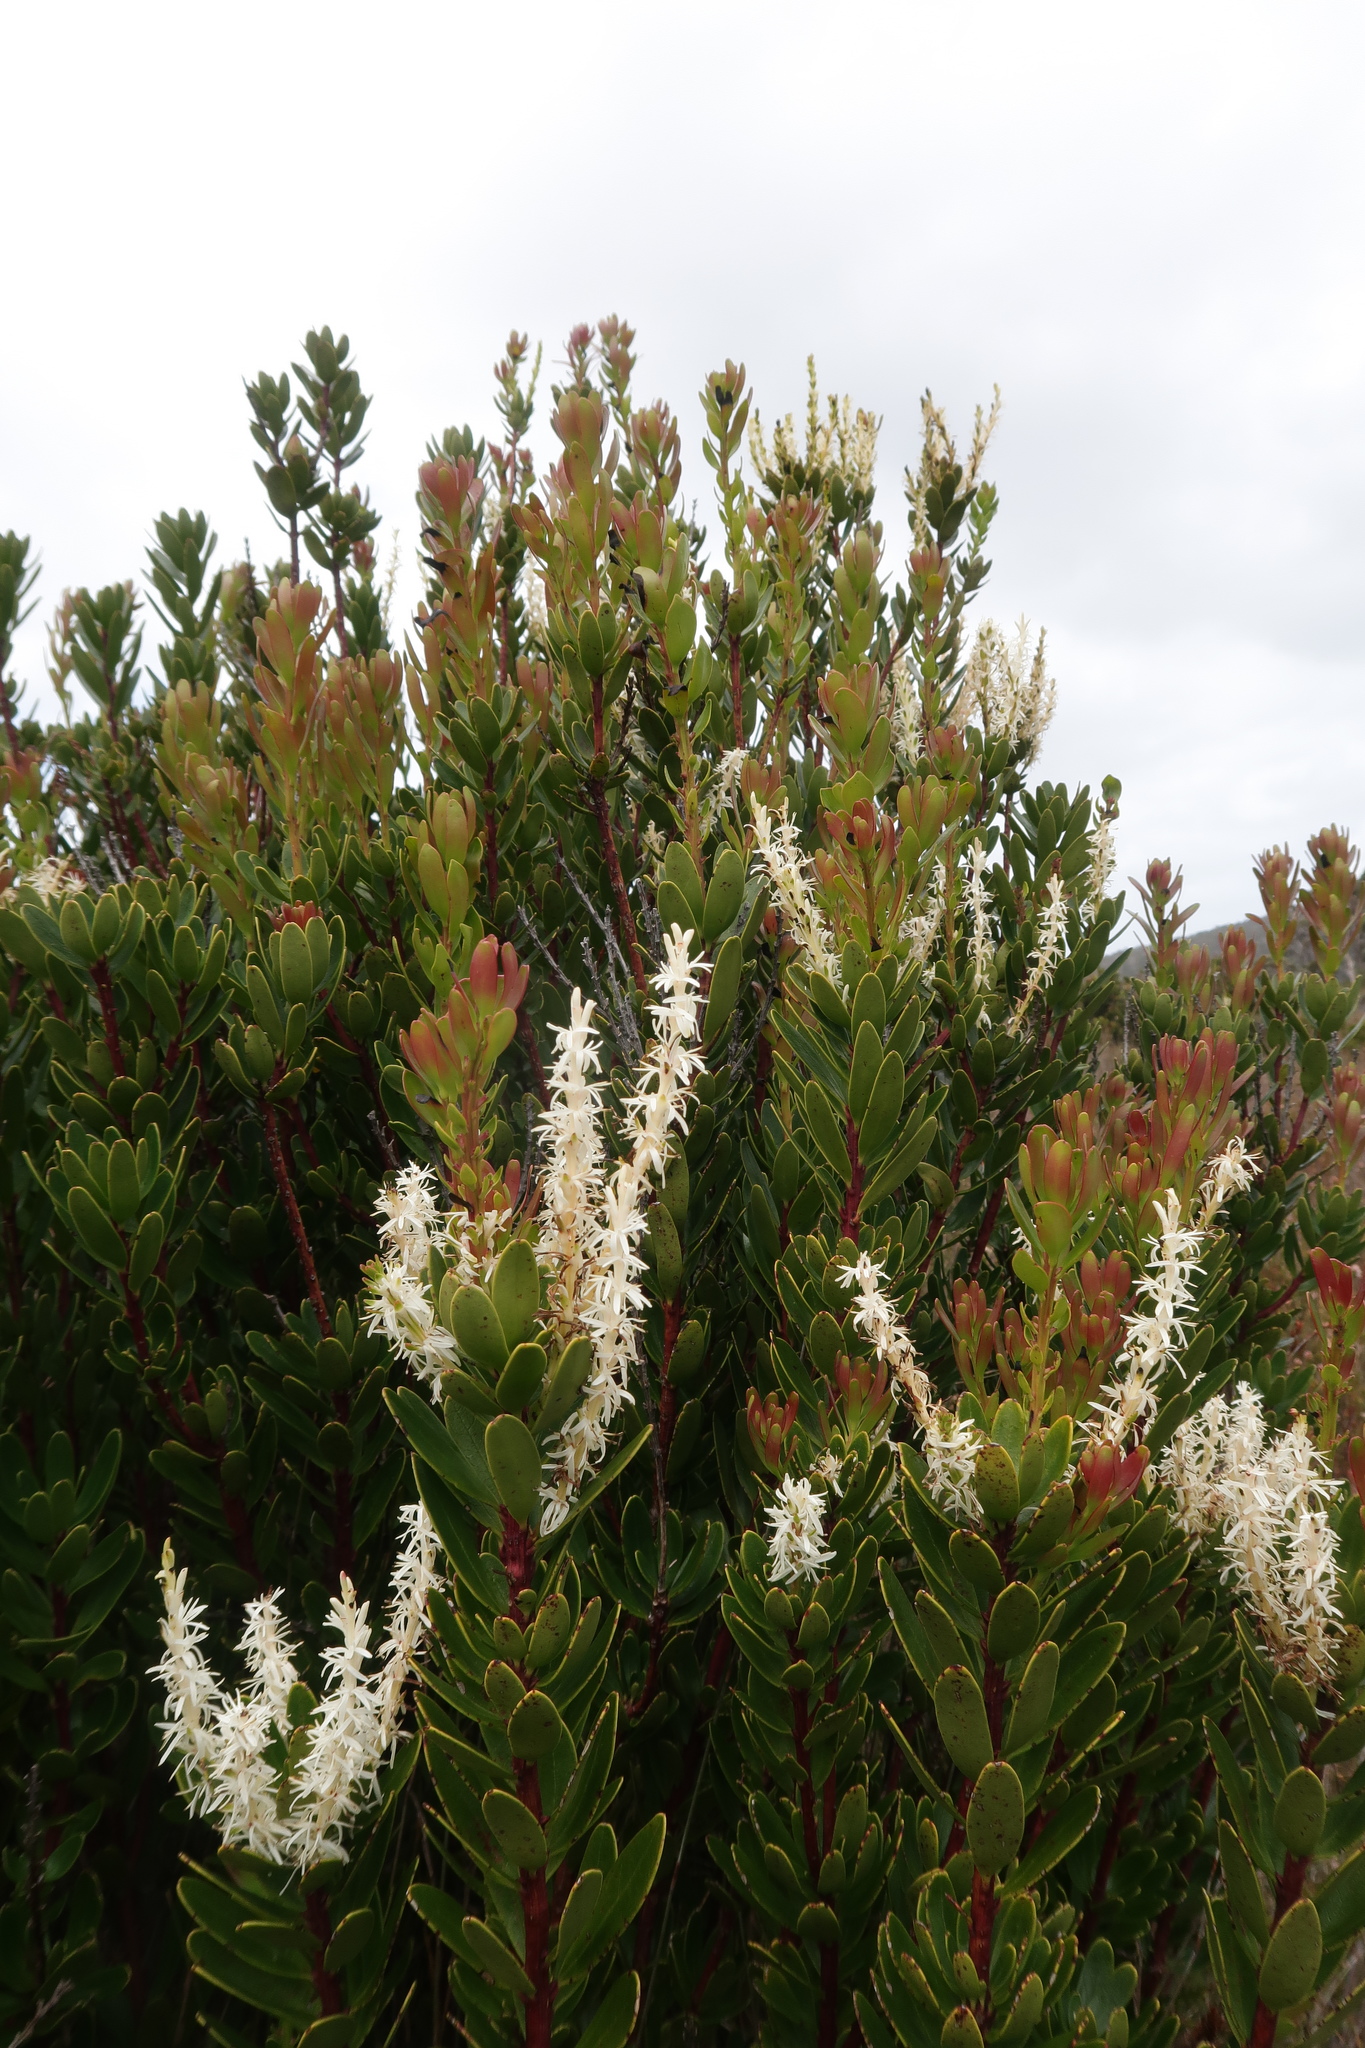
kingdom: Plantae
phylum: Tracheophyta
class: Magnoliopsida
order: Proteales
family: Proteaceae
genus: Agastachys
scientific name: Agastachys odorata
